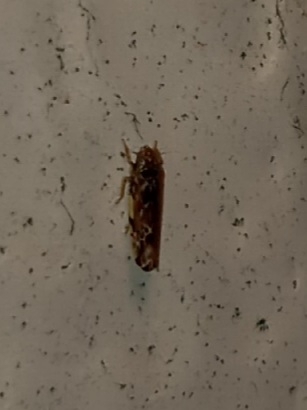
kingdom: Animalia
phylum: Arthropoda
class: Insecta
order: Hemiptera
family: Cicadellidae
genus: Erasmoneura
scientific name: Erasmoneura vulnerata
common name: The wounded leafhopper
